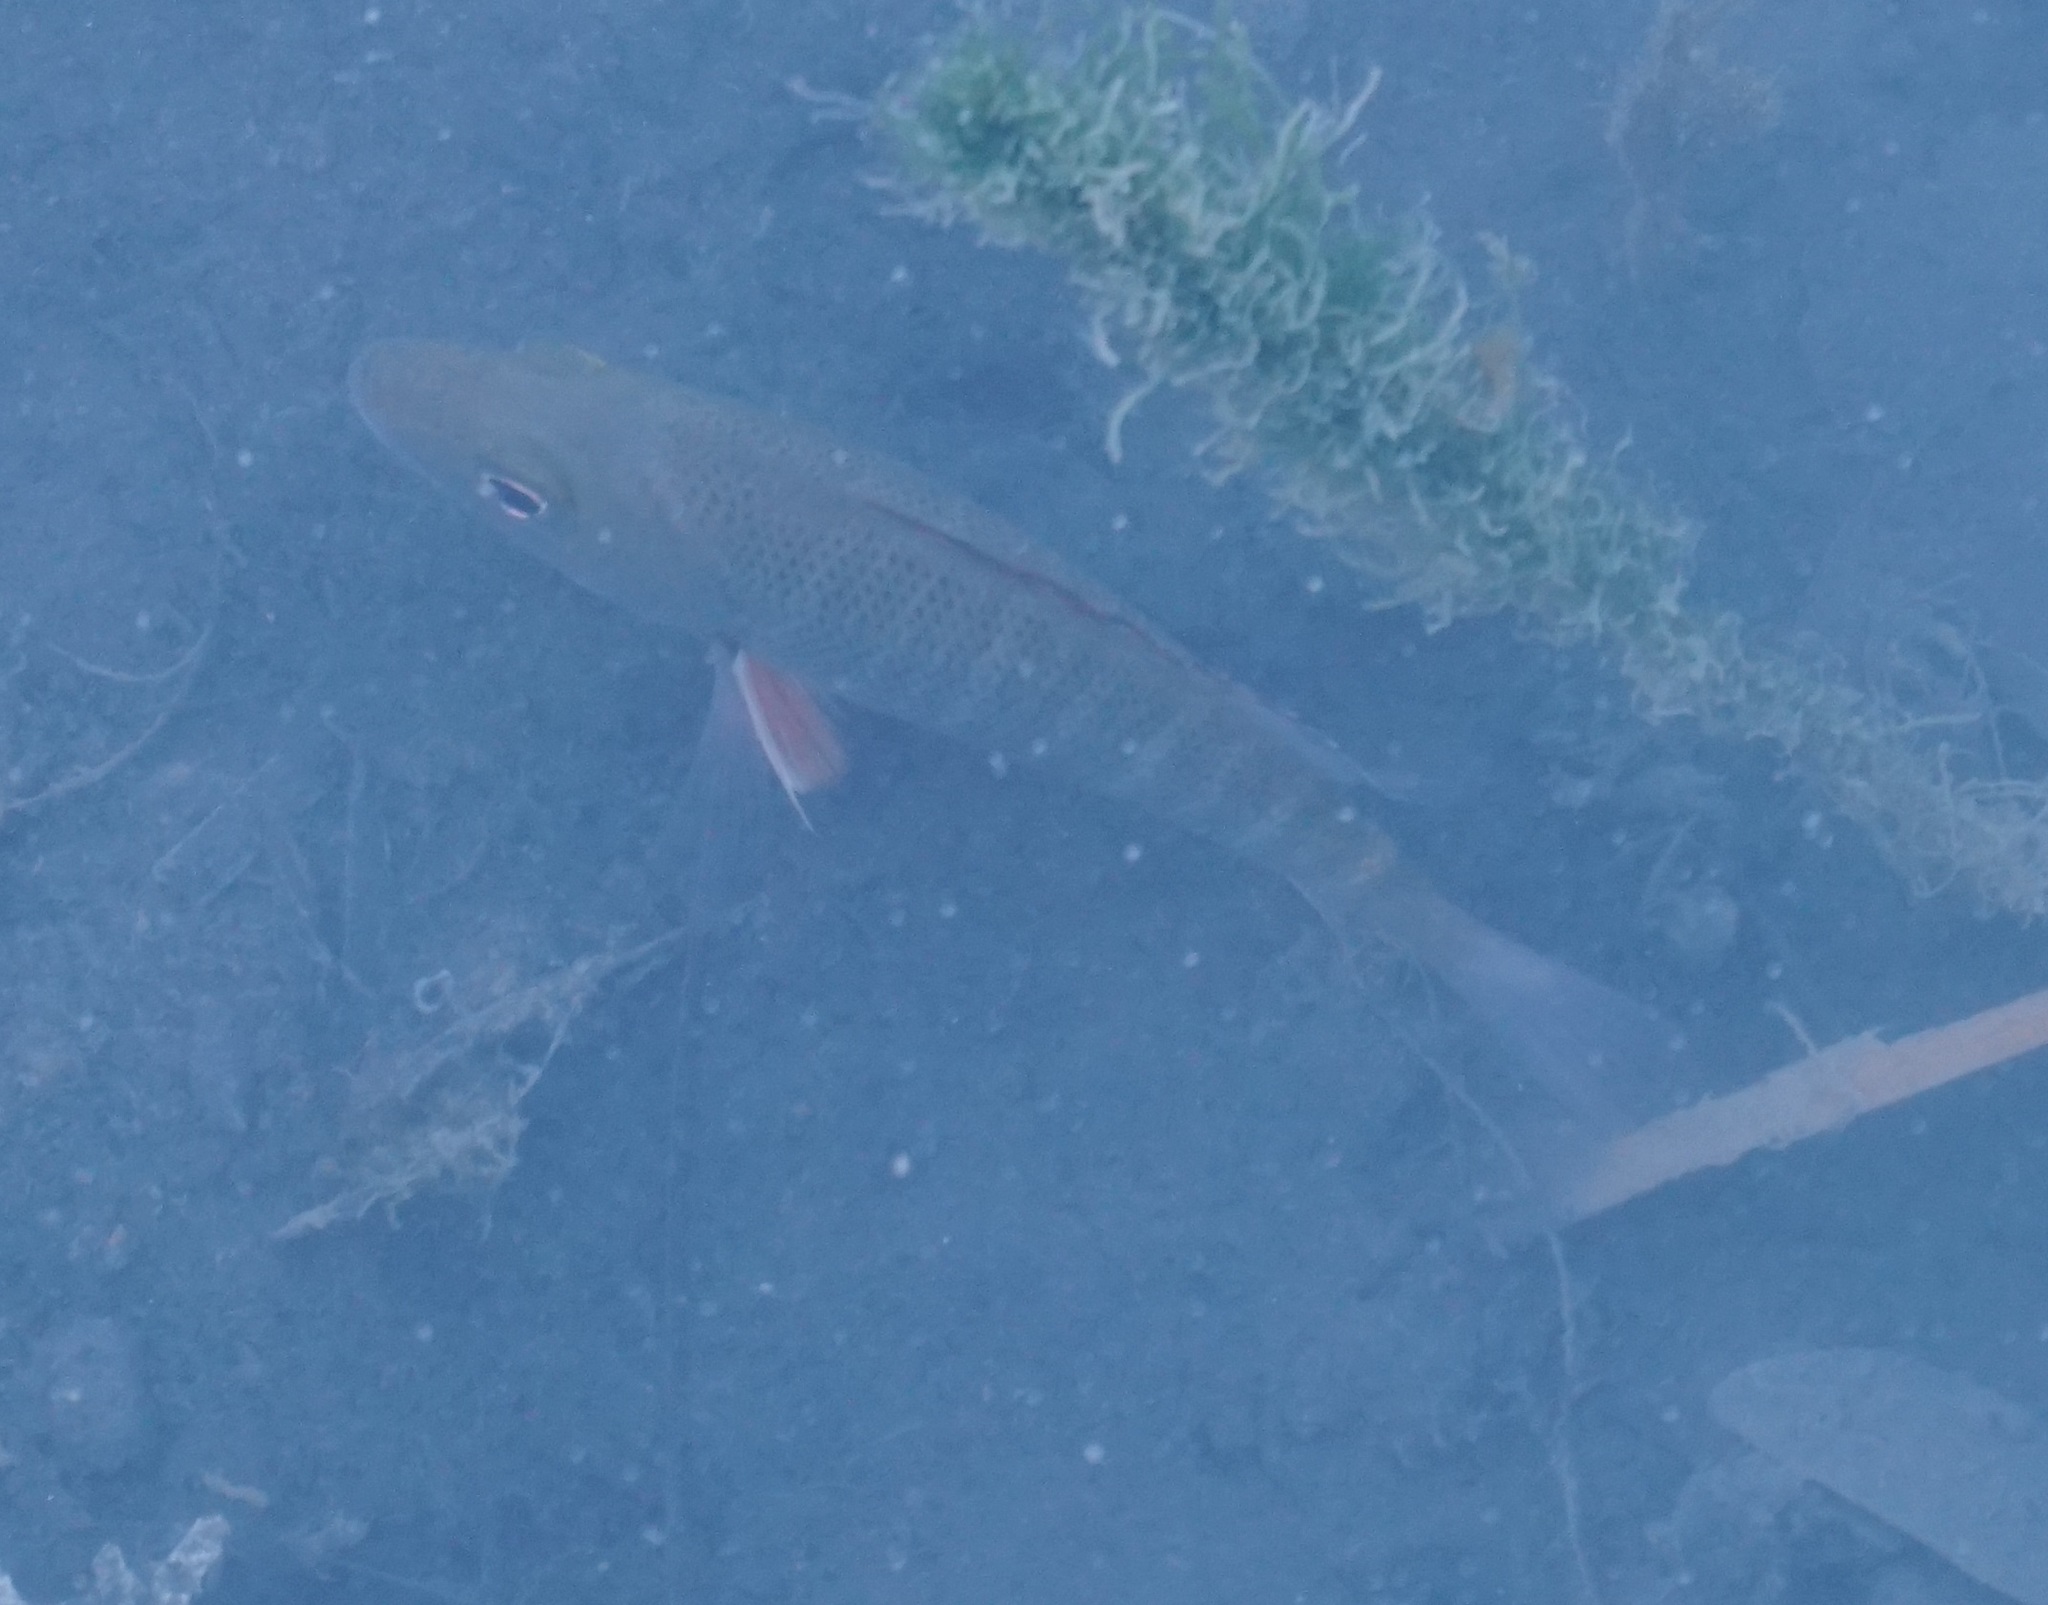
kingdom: Animalia
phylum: Chordata
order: Perciformes
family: Lutjanidae
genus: Lutjanus
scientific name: Lutjanus argentimaculatus
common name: Mangrove red snapper
